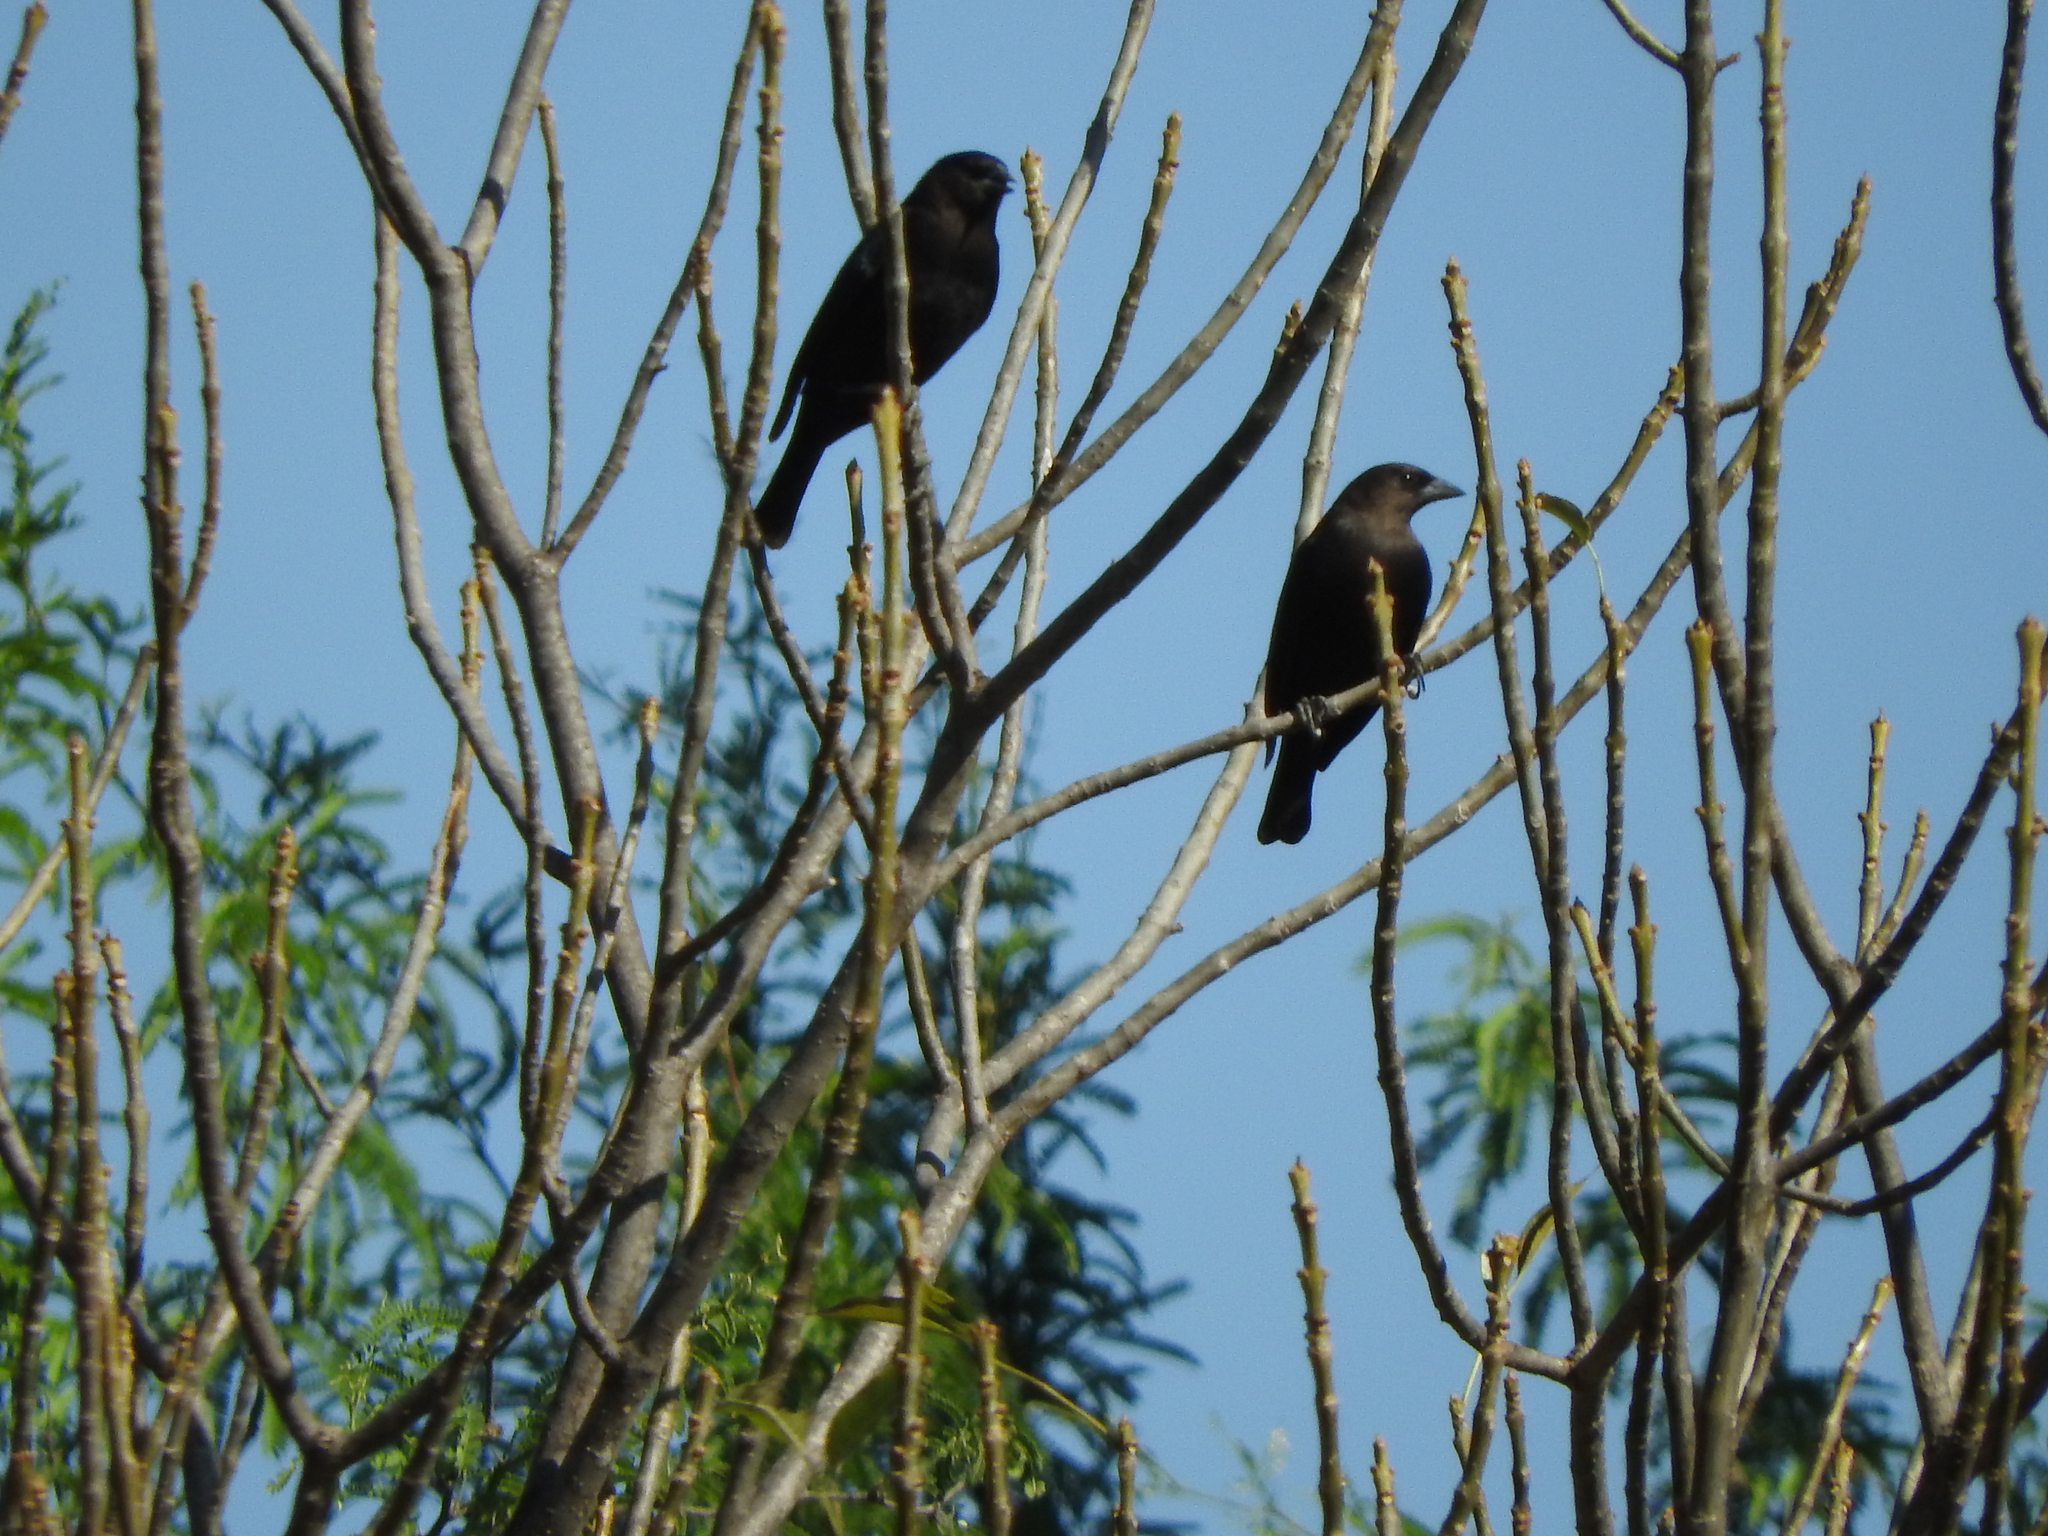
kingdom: Animalia
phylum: Chordata
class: Aves
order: Passeriformes
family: Icteridae
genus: Molothrus
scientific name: Molothrus ater
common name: Brown-headed cowbird
